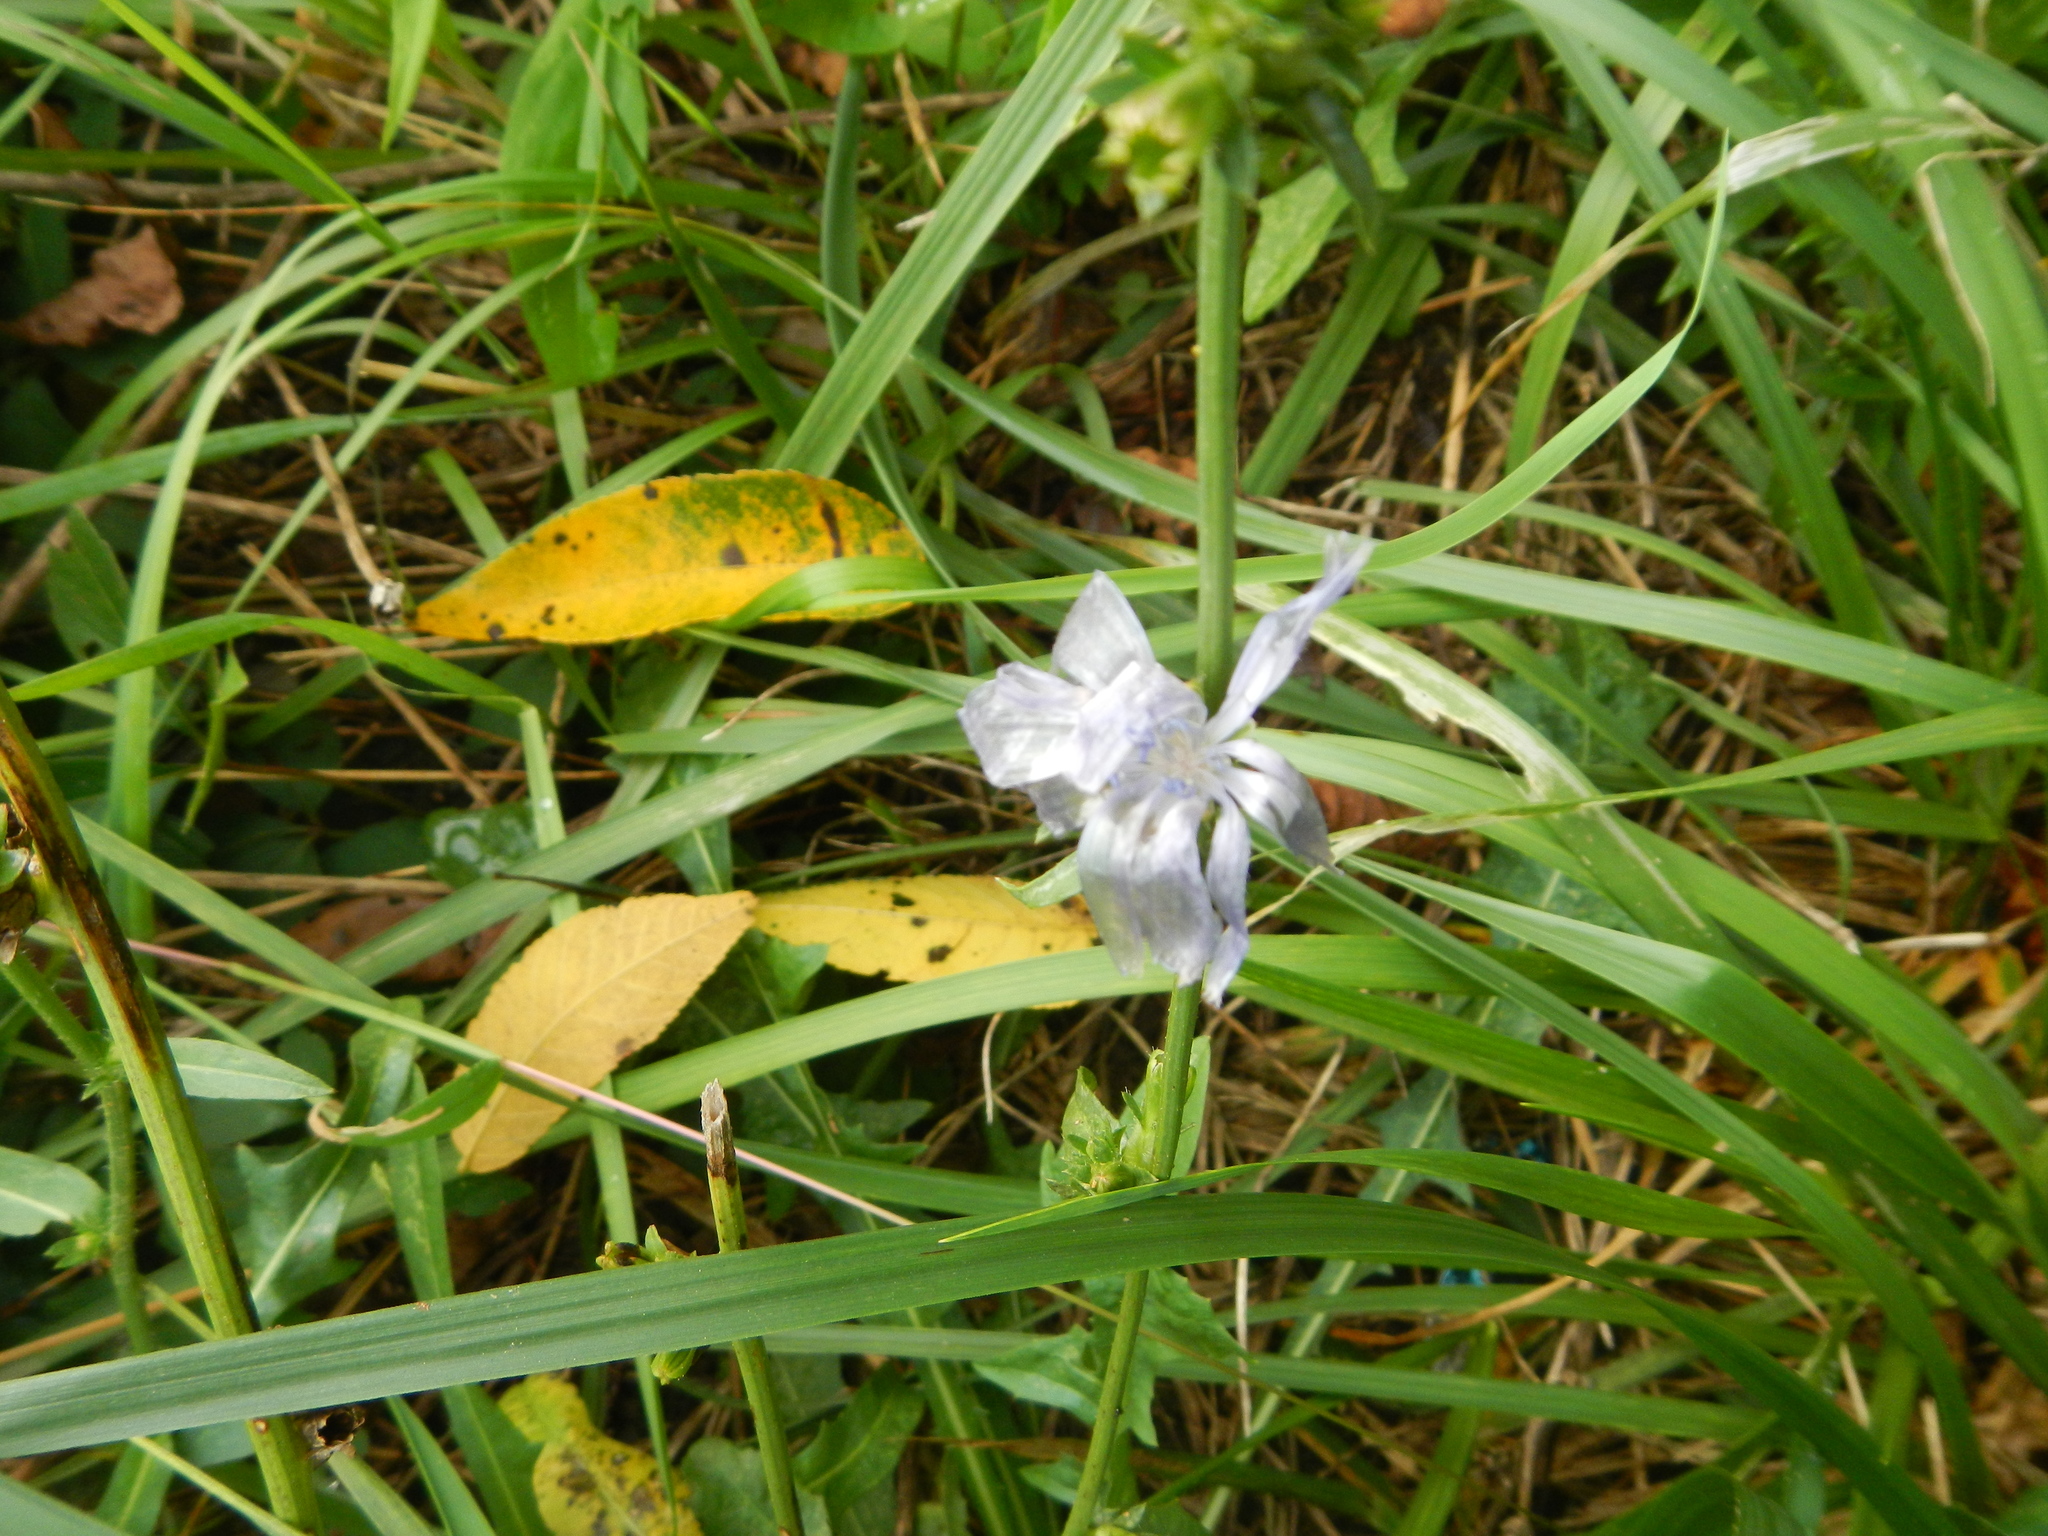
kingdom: Plantae
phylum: Tracheophyta
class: Magnoliopsida
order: Asterales
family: Asteraceae
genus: Cichorium
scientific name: Cichorium intybus
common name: Chicory
